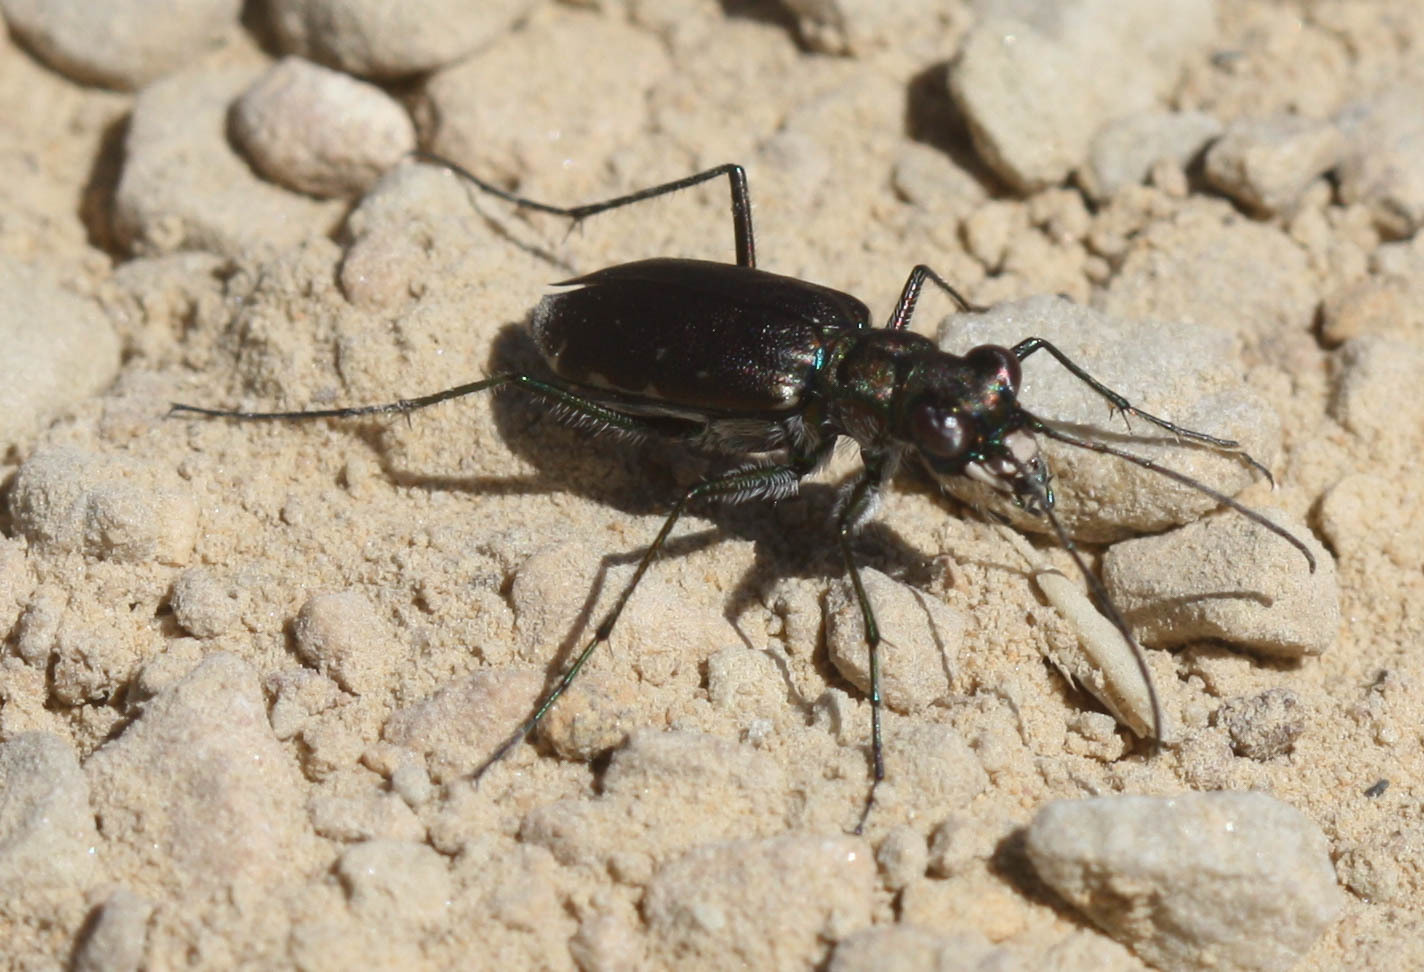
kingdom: Animalia
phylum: Arthropoda
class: Insecta
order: Coleoptera
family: Carabidae
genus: Cicindela
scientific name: Cicindela punctulata
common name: Punctured tiger beetle
